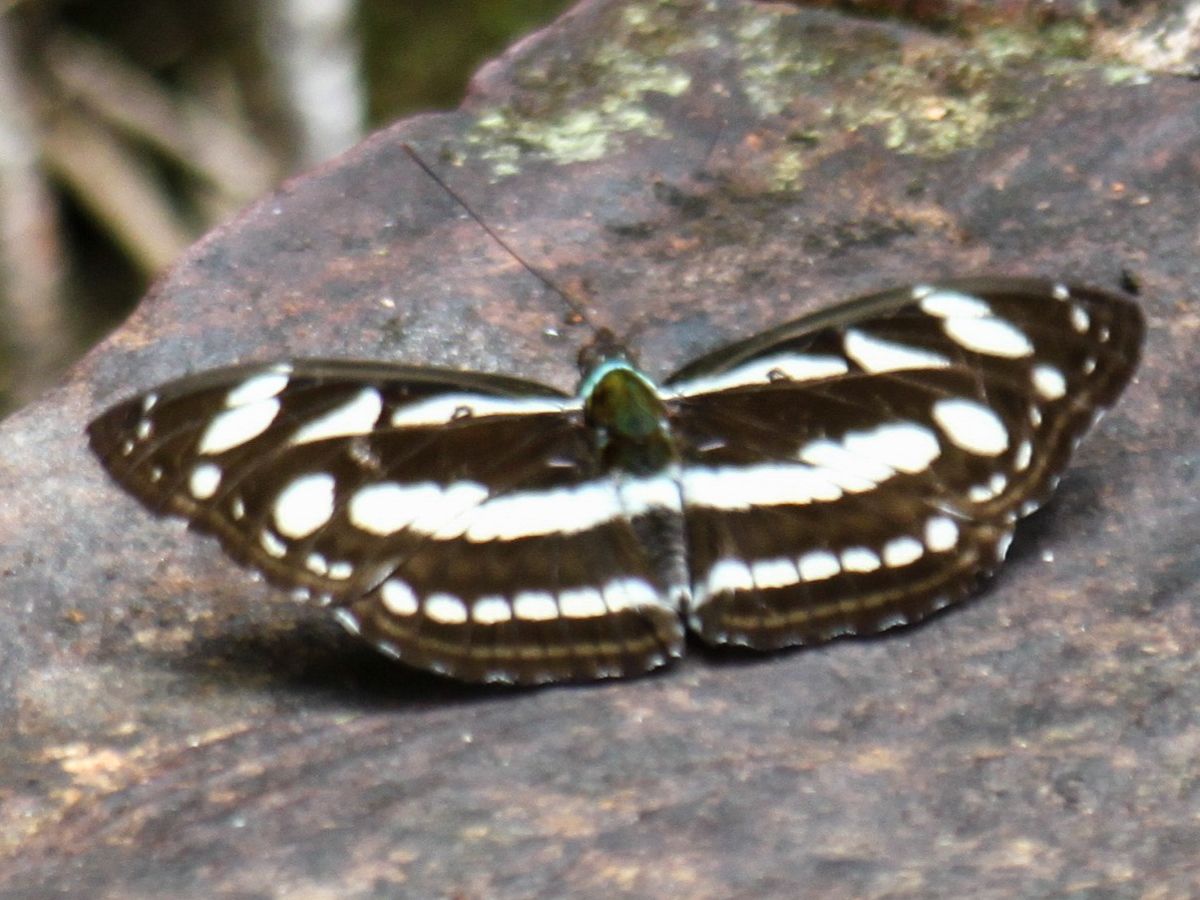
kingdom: Animalia
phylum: Arthropoda
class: Insecta
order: Lepidoptera
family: Nymphalidae
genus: Pantoporia
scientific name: Pantoporia larymna
